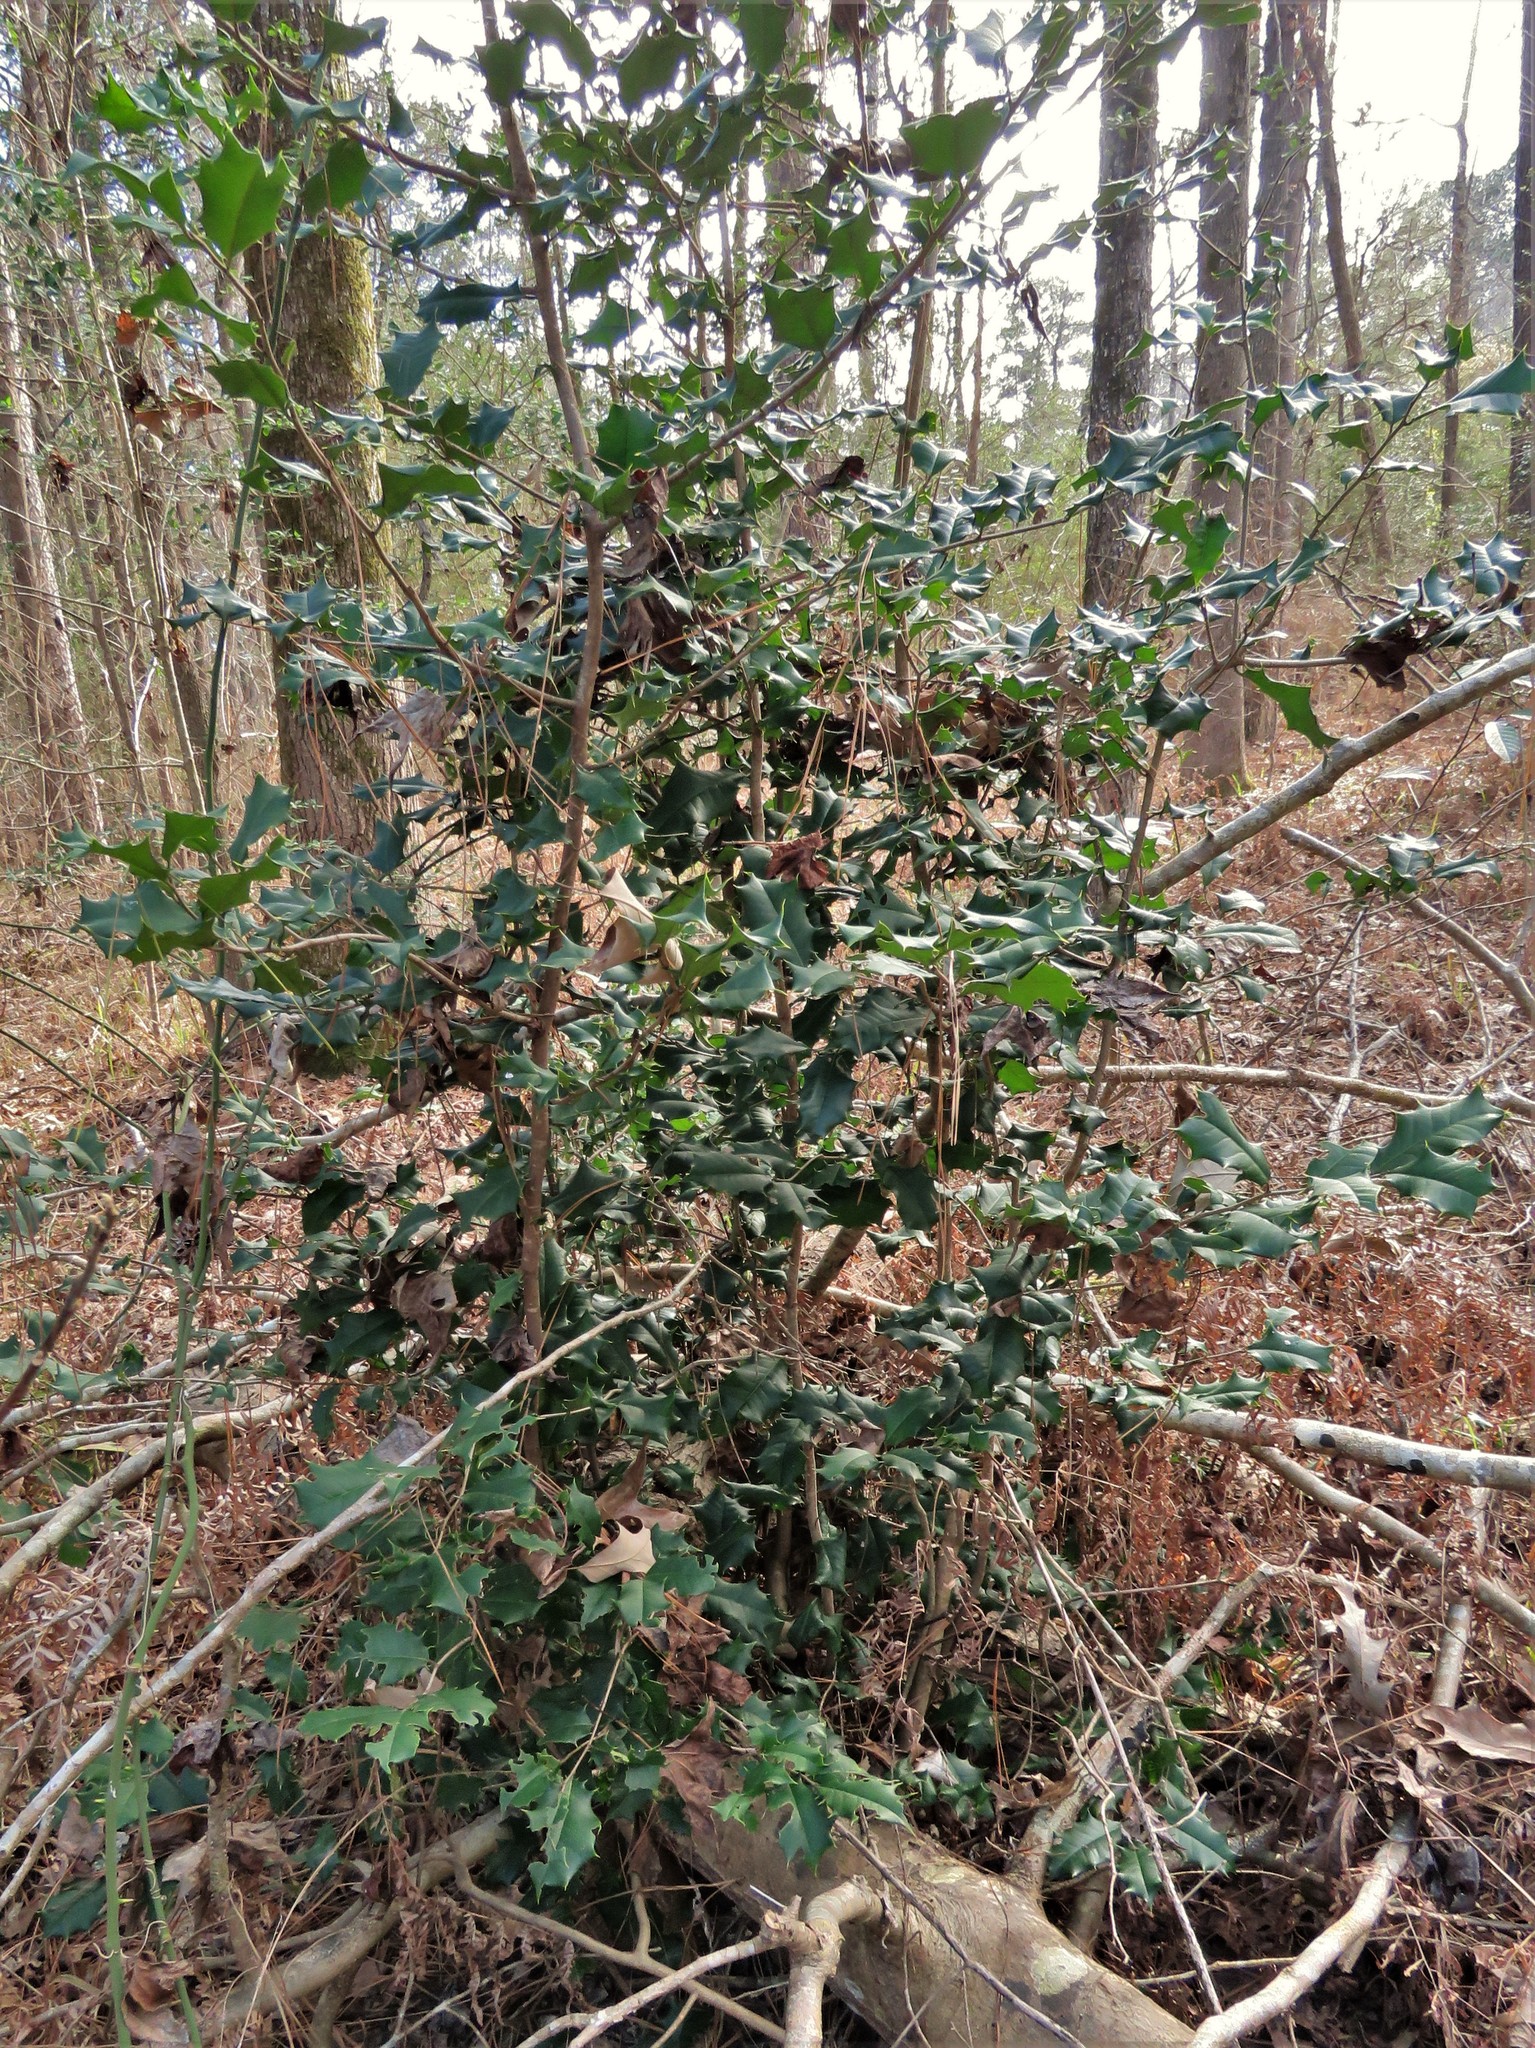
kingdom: Plantae
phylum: Tracheophyta
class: Magnoliopsida
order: Aquifoliales
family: Aquifoliaceae
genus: Ilex
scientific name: Ilex opaca
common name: American holly
